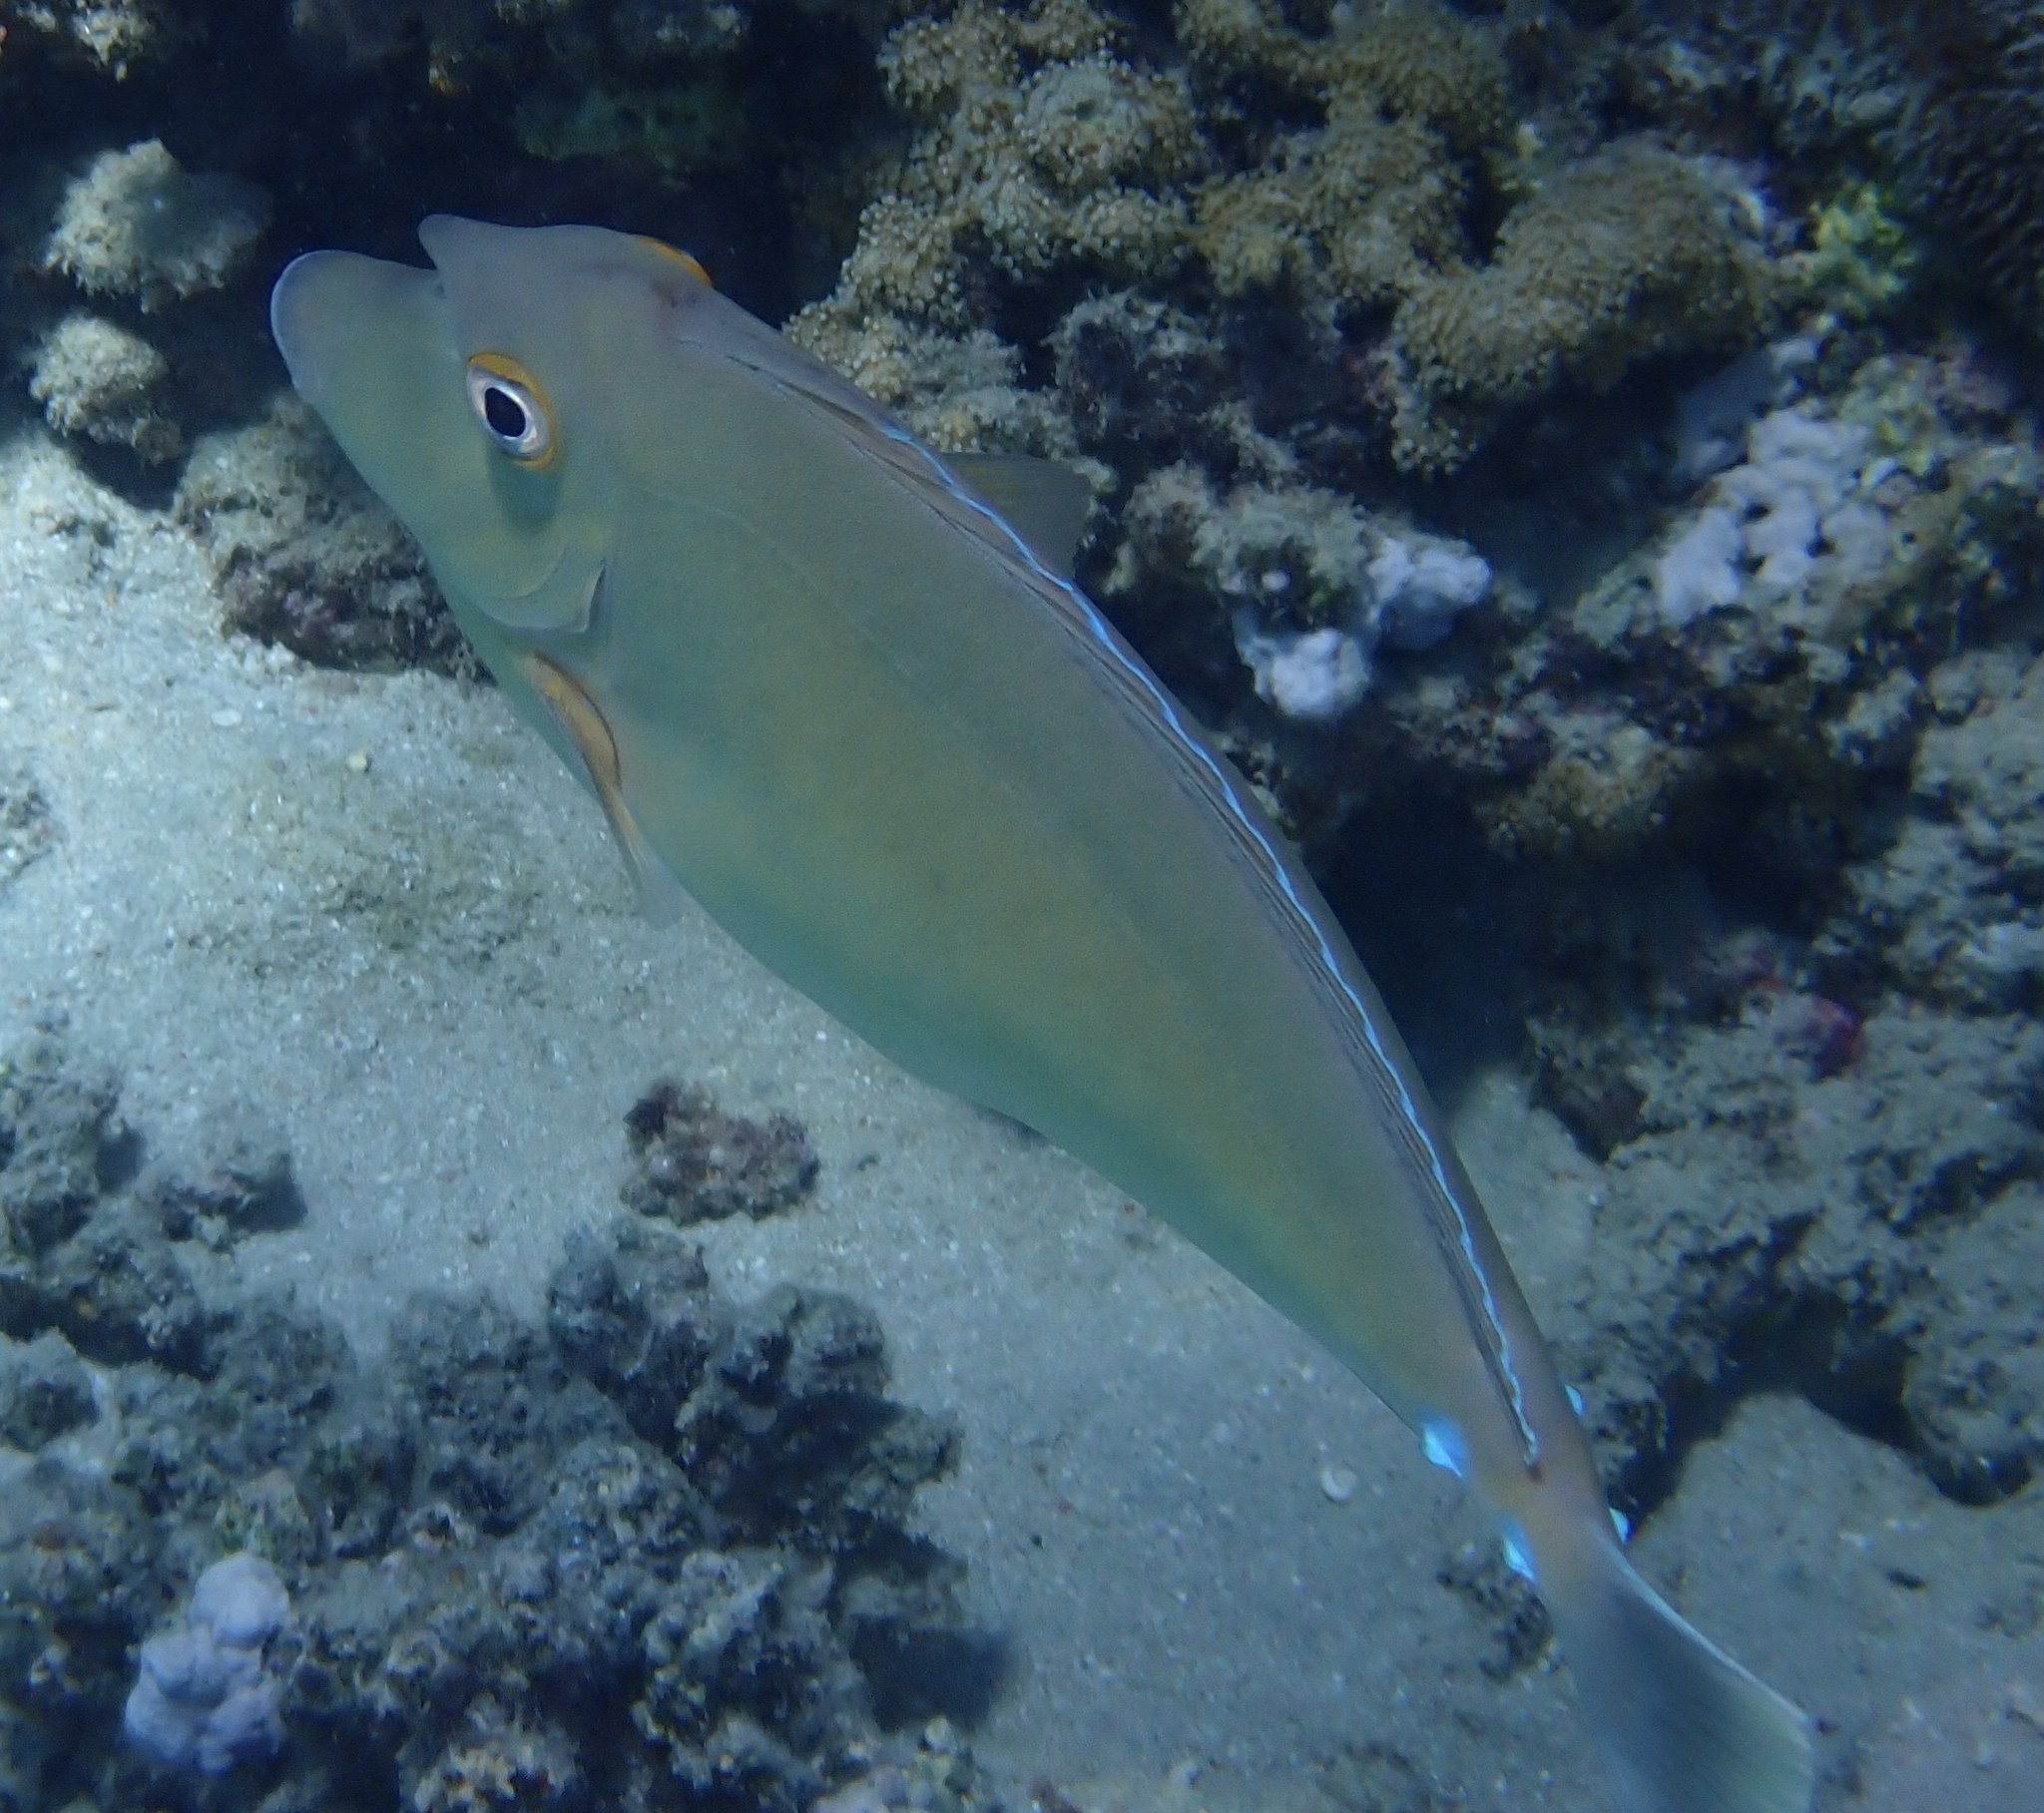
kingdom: Animalia
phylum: Chordata
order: Perciformes
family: Acanthuridae
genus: Naso
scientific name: Naso unicornis
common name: Bluespine unicornfish
